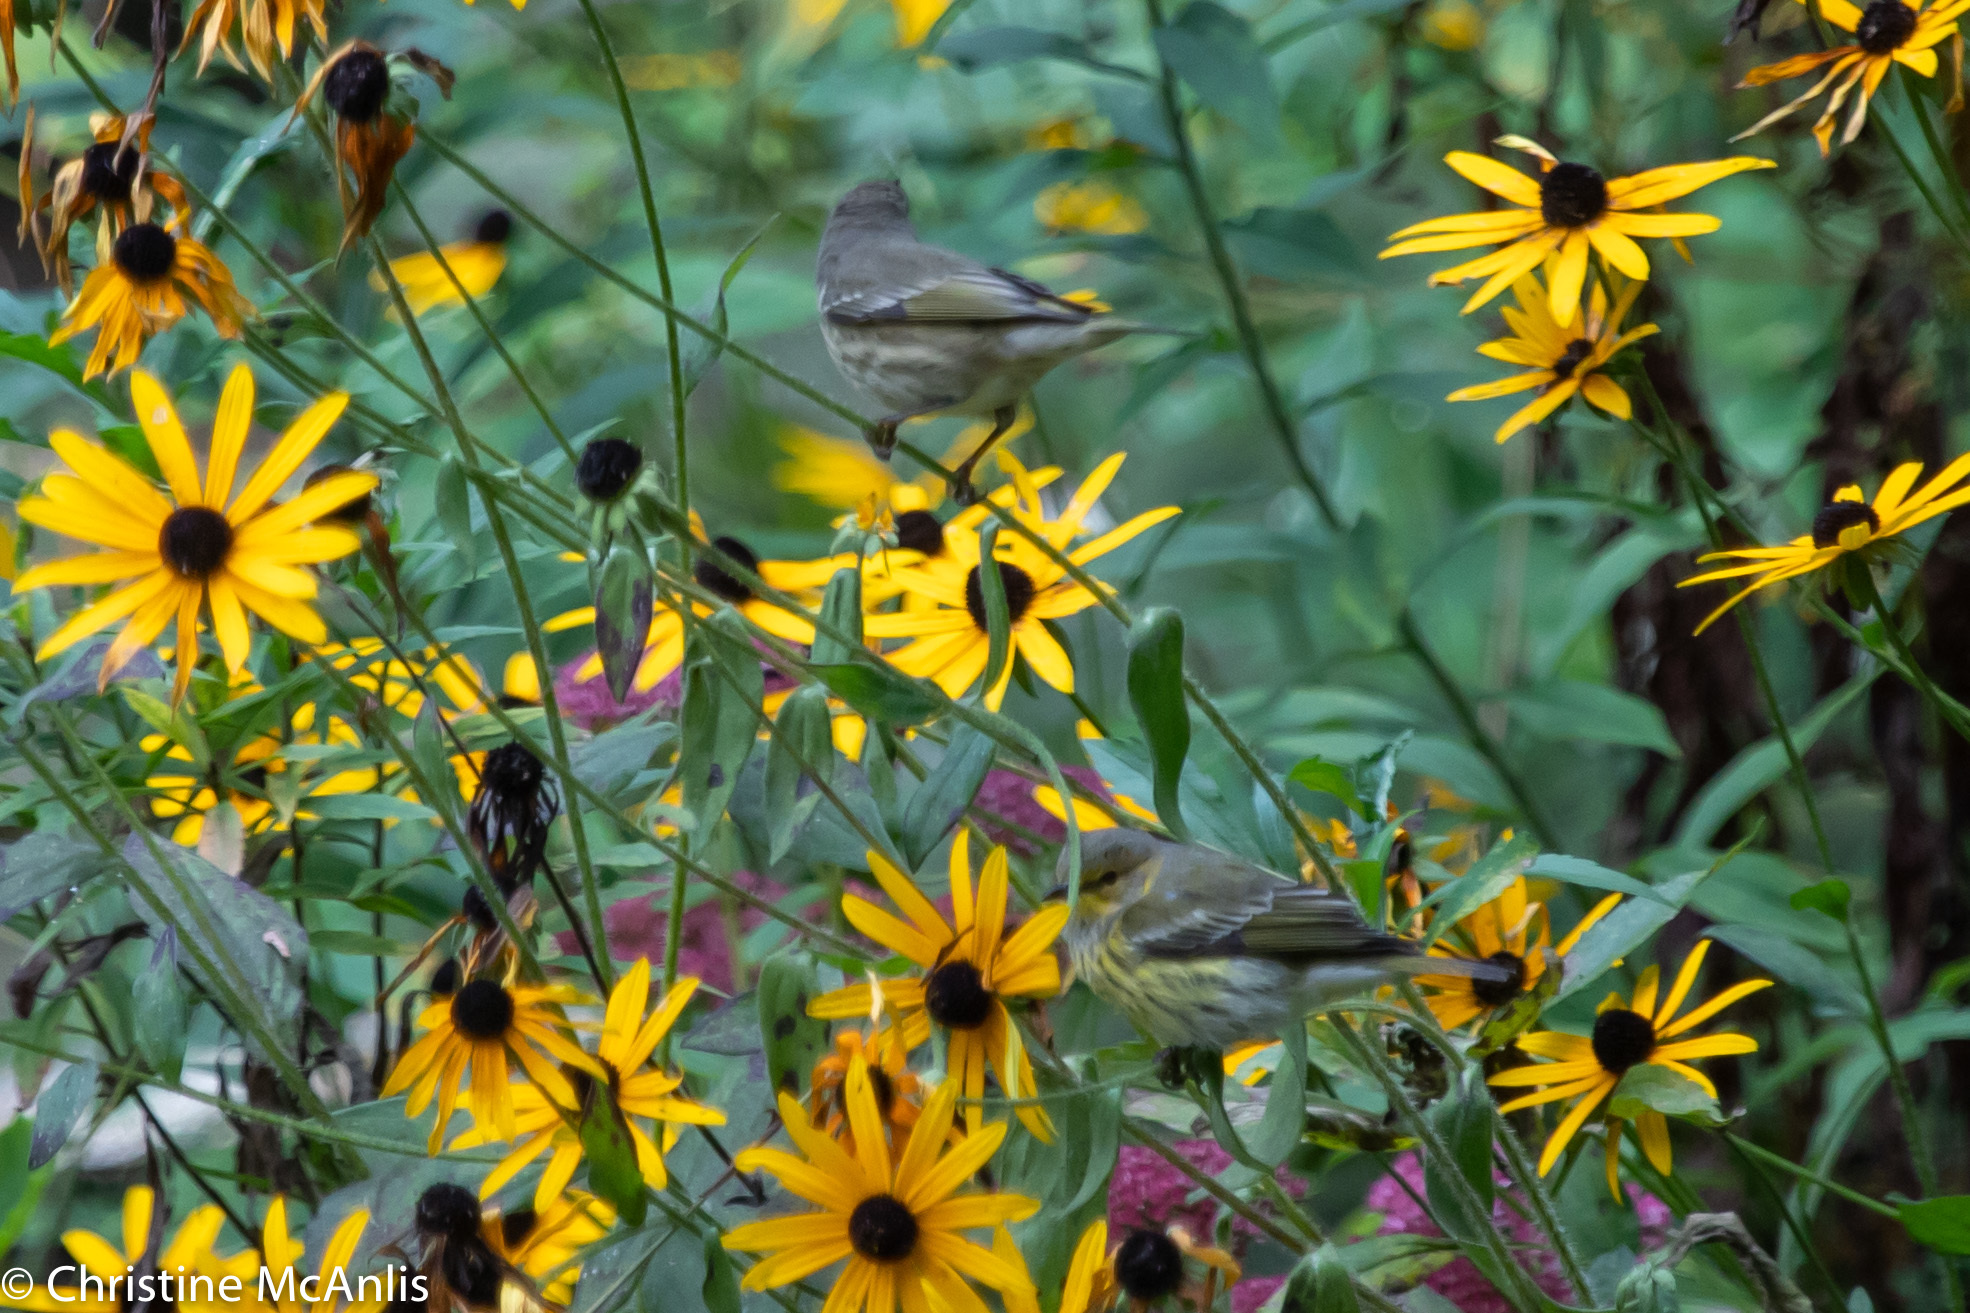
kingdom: Animalia
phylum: Chordata
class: Aves
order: Passeriformes
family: Parulidae
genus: Setophaga
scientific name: Setophaga tigrina
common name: Cape may warbler
